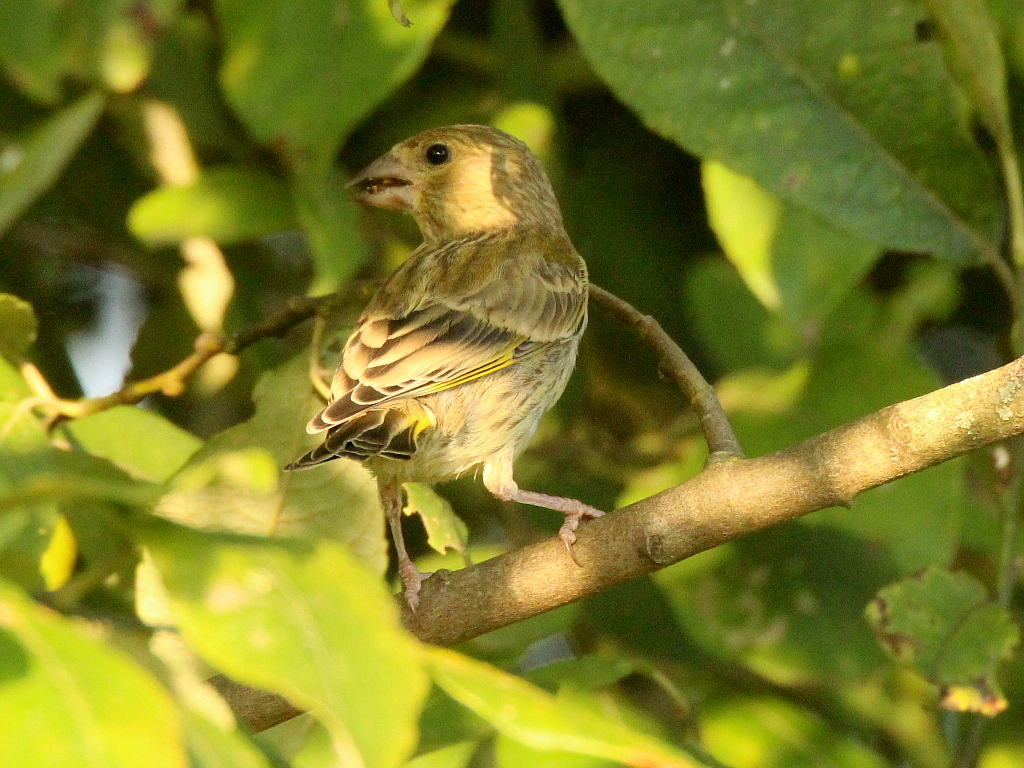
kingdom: Plantae
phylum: Tracheophyta
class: Liliopsida
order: Poales
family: Poaceae
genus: Chloris
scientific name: Chloris chloris
